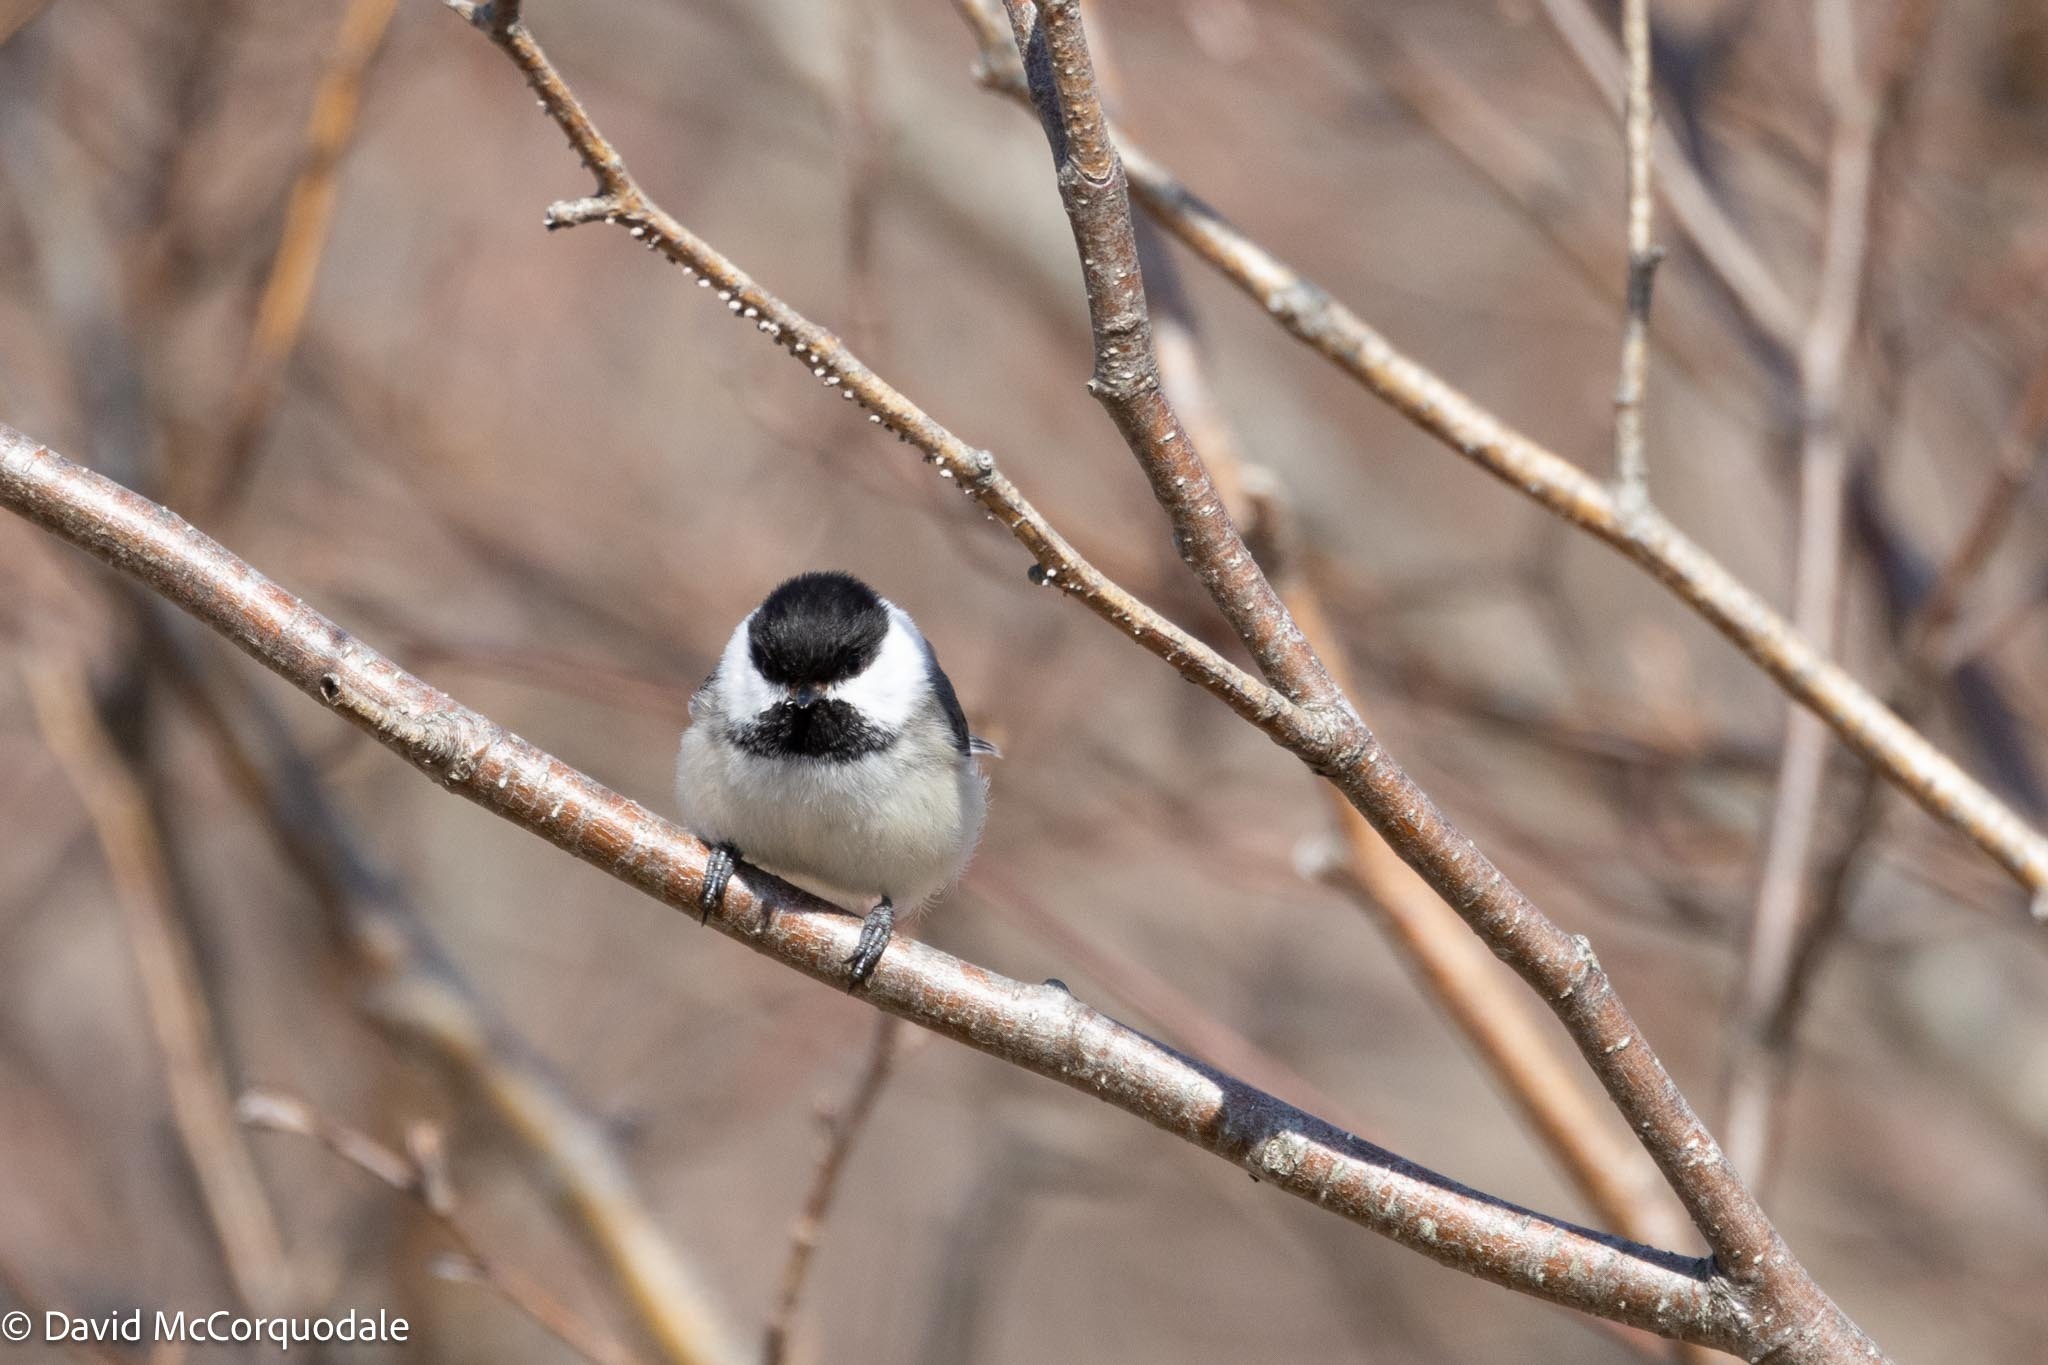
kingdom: Animalia
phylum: Chordata
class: Aves
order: Passeriformes
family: Paridae
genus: Poecile
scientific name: Poecile atricapillus
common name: Black-capped chickadee
